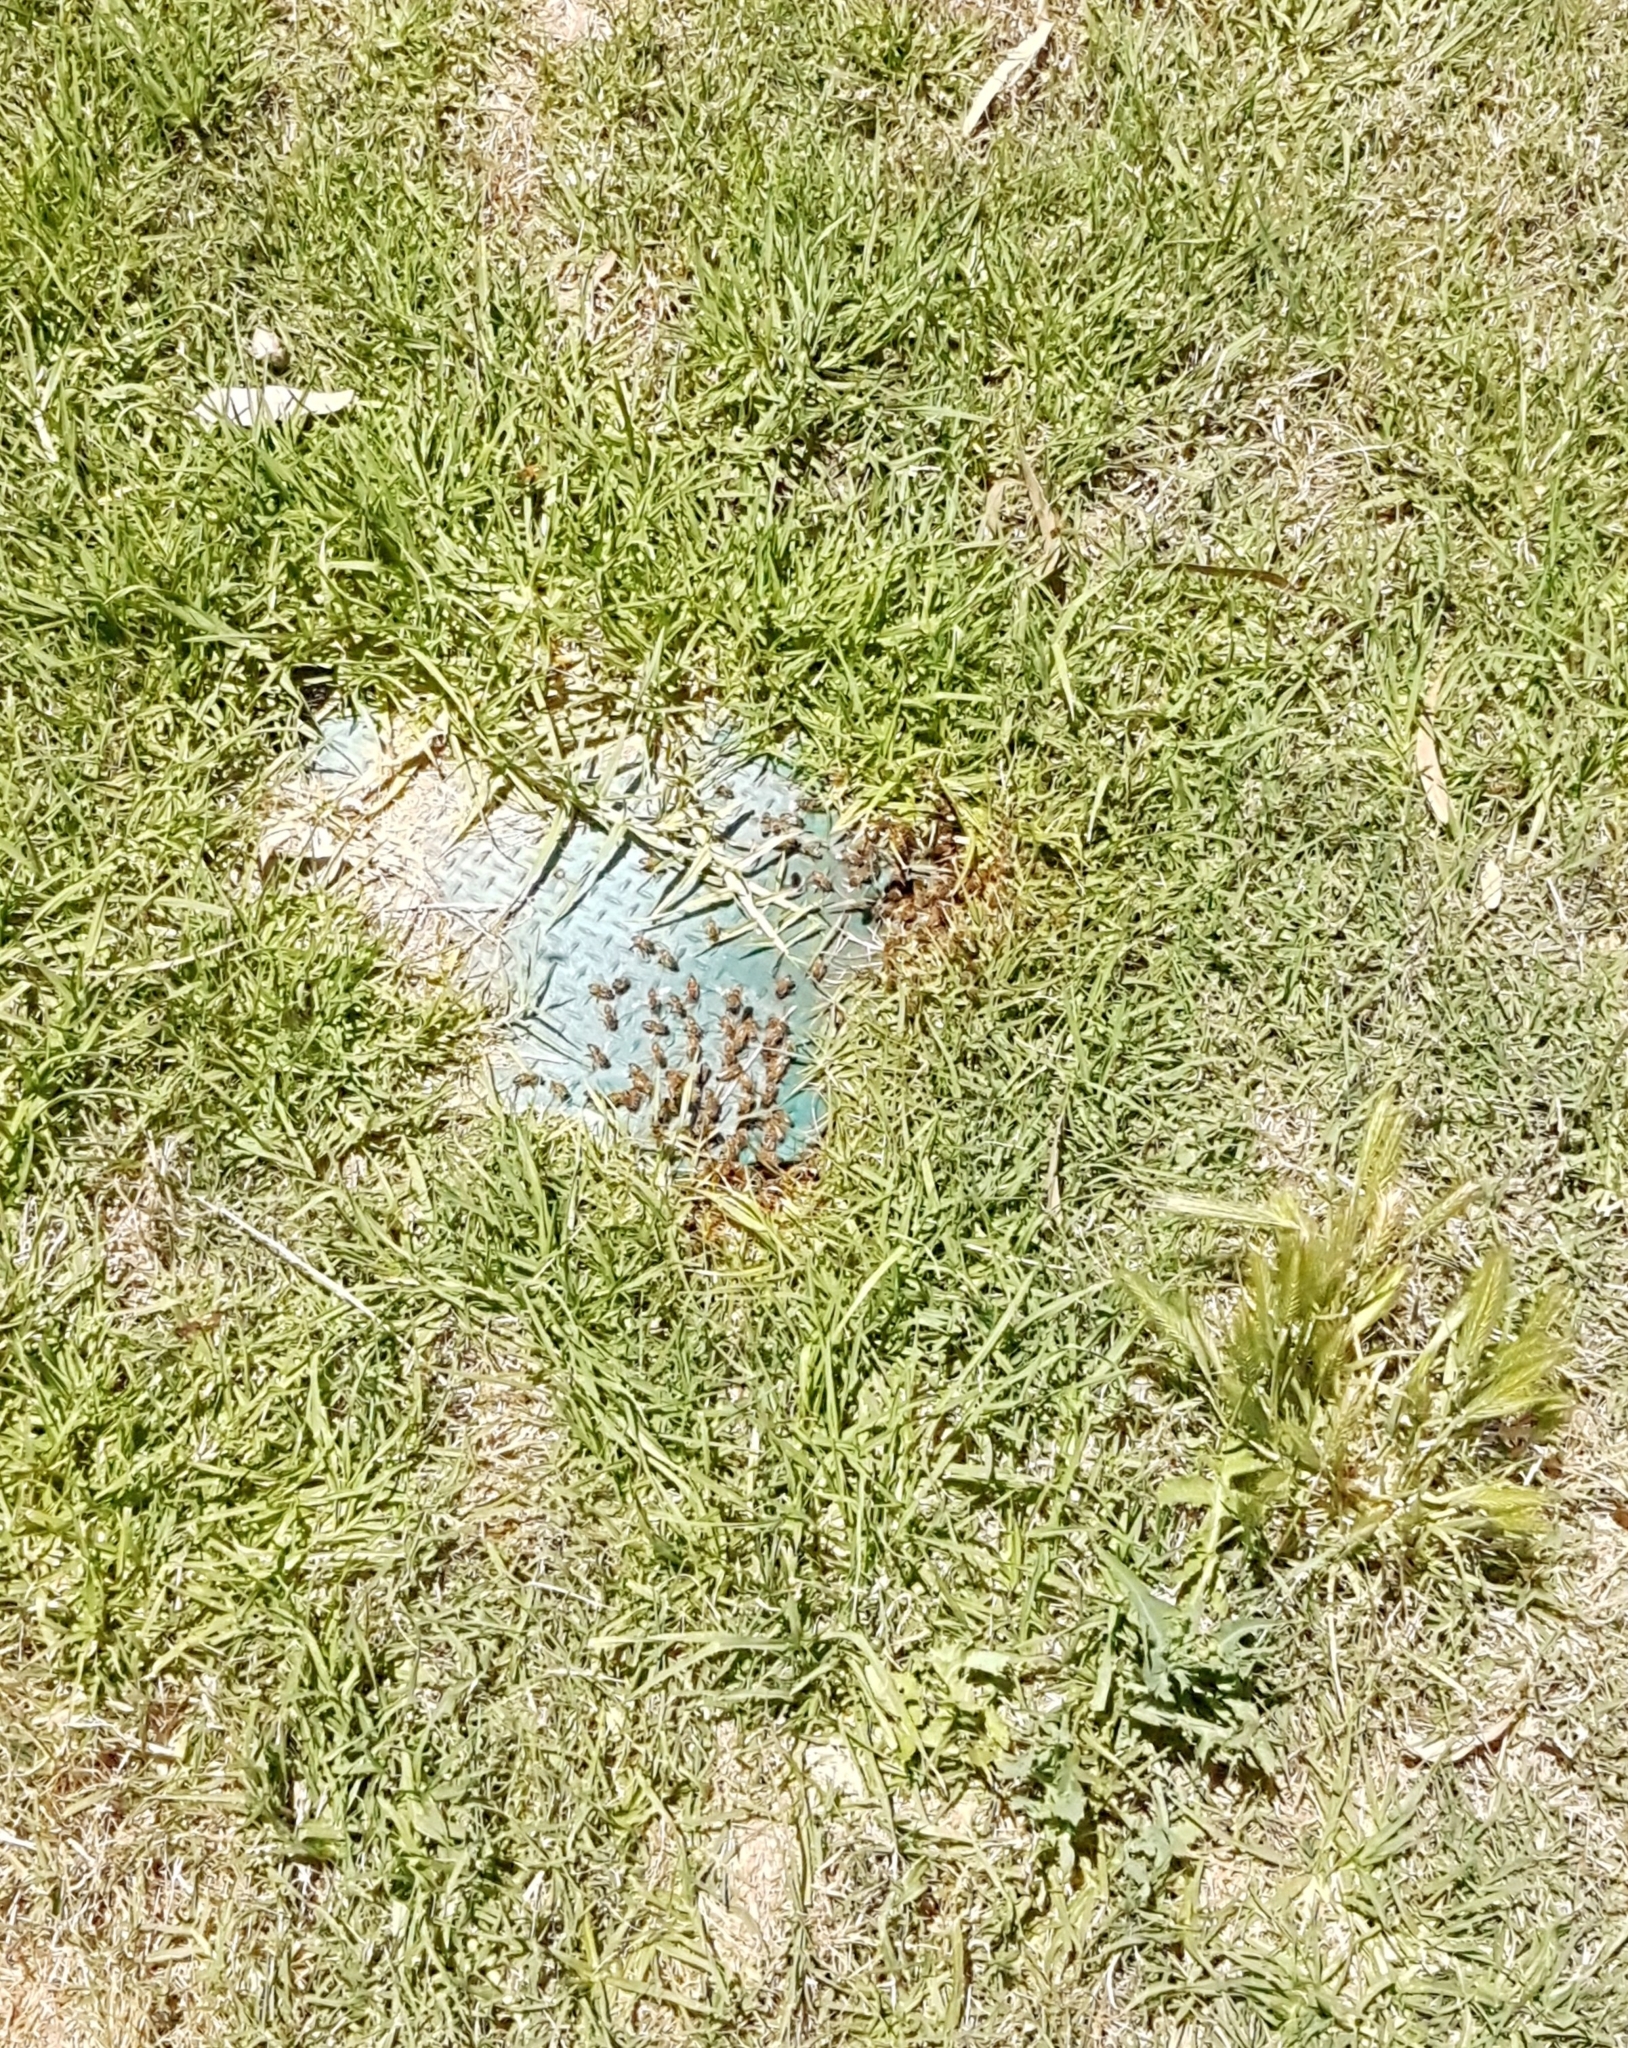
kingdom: Animalia
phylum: Arthropoda
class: Insecta
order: Hymenoptera
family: Apidae
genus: Apis
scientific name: Apis mellifera
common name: Honey bee
